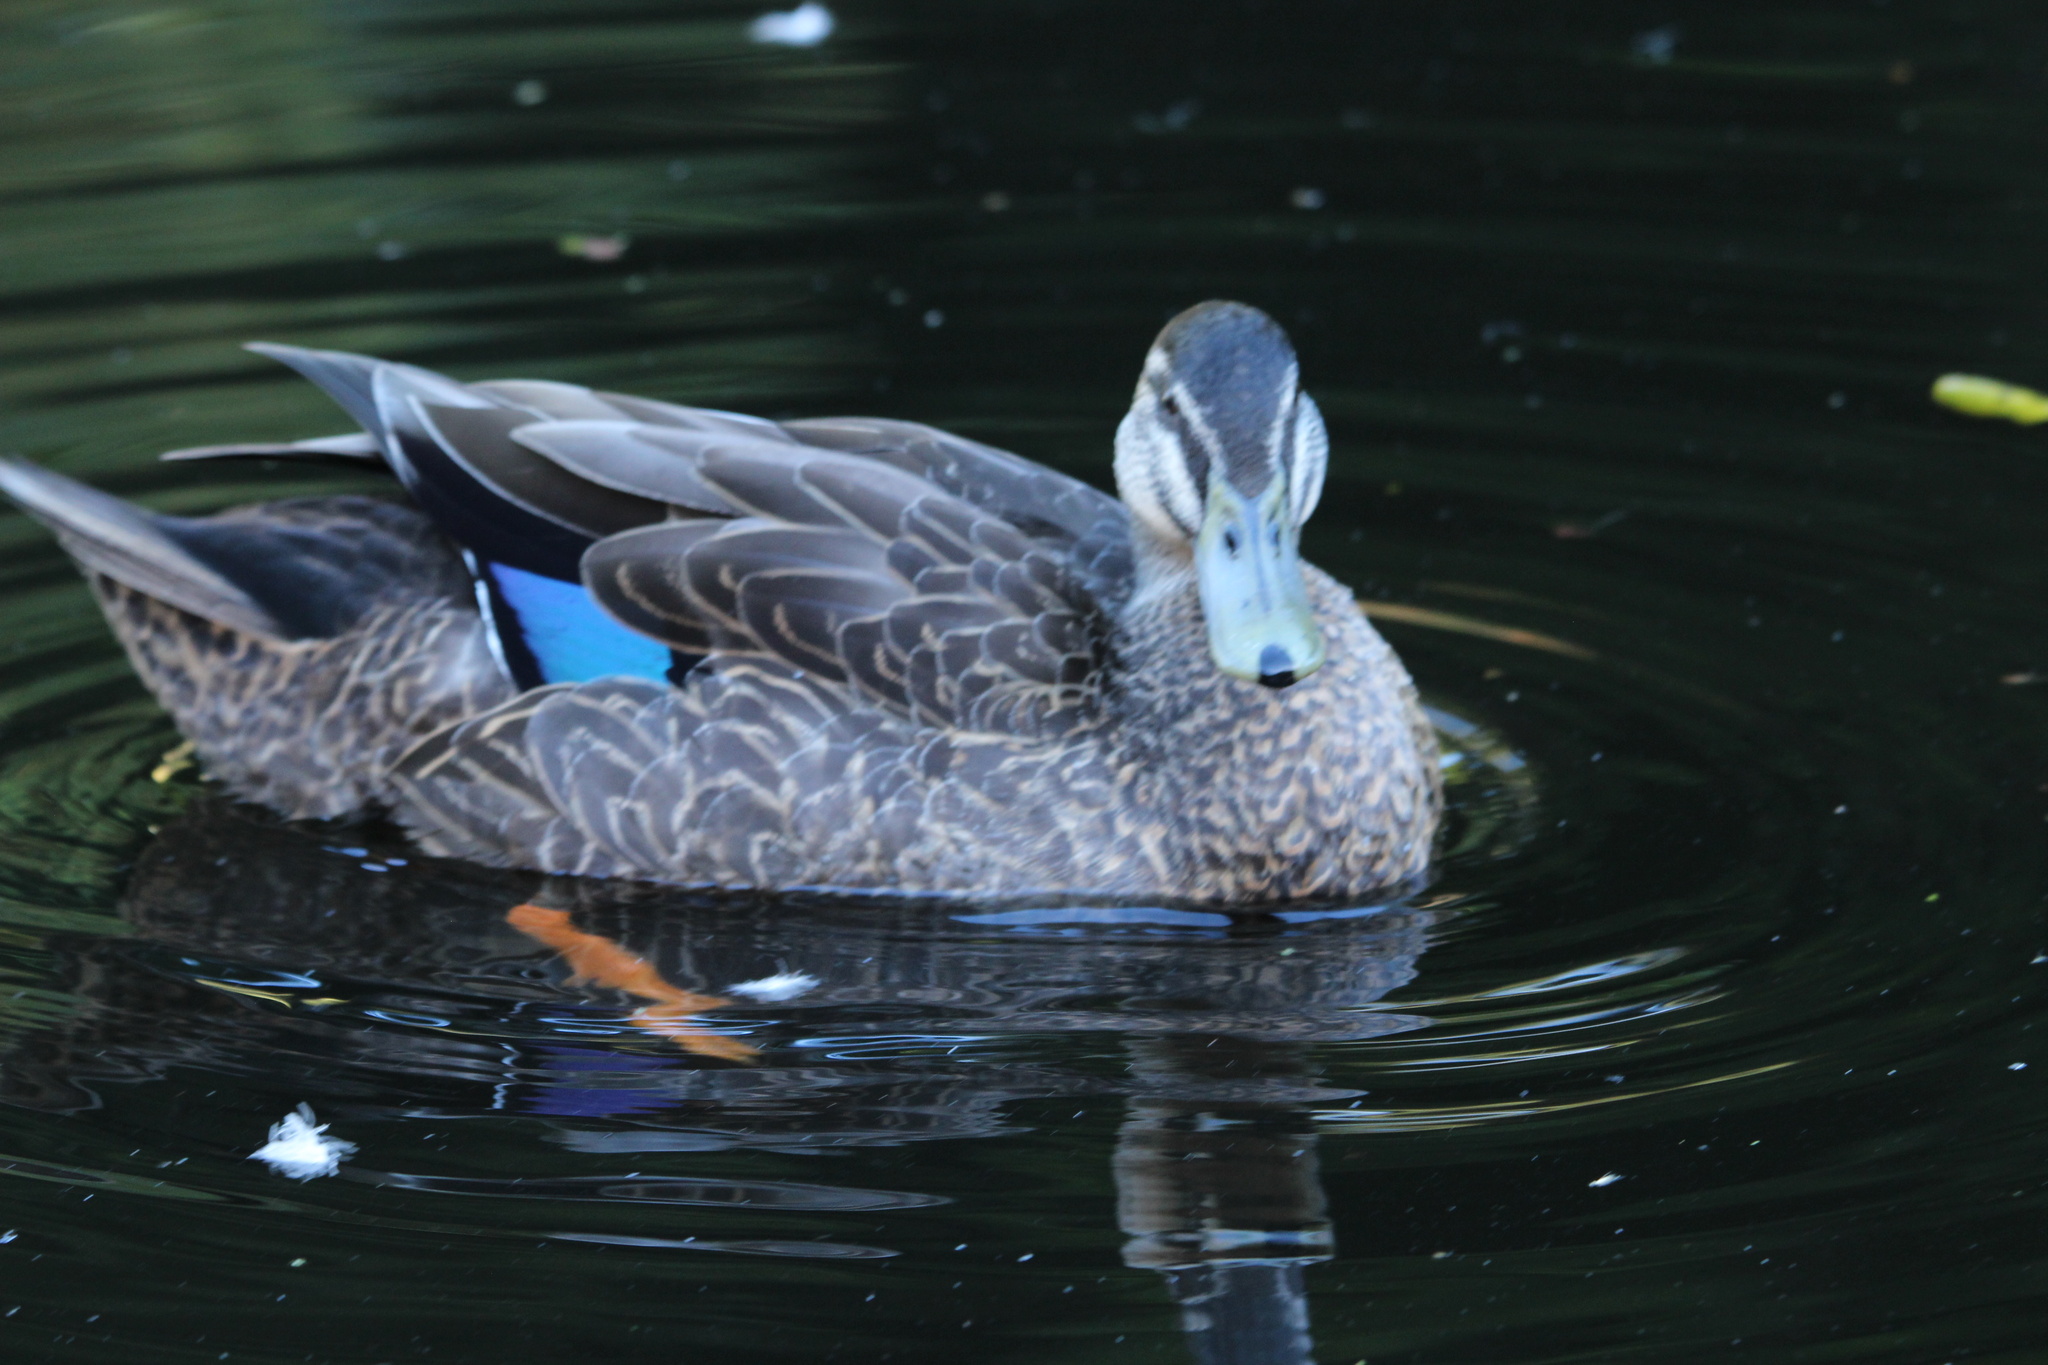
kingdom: Animalia
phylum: Chordata
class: Aves
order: Anseriformes
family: Anatidae
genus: Anas
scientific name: Anas
